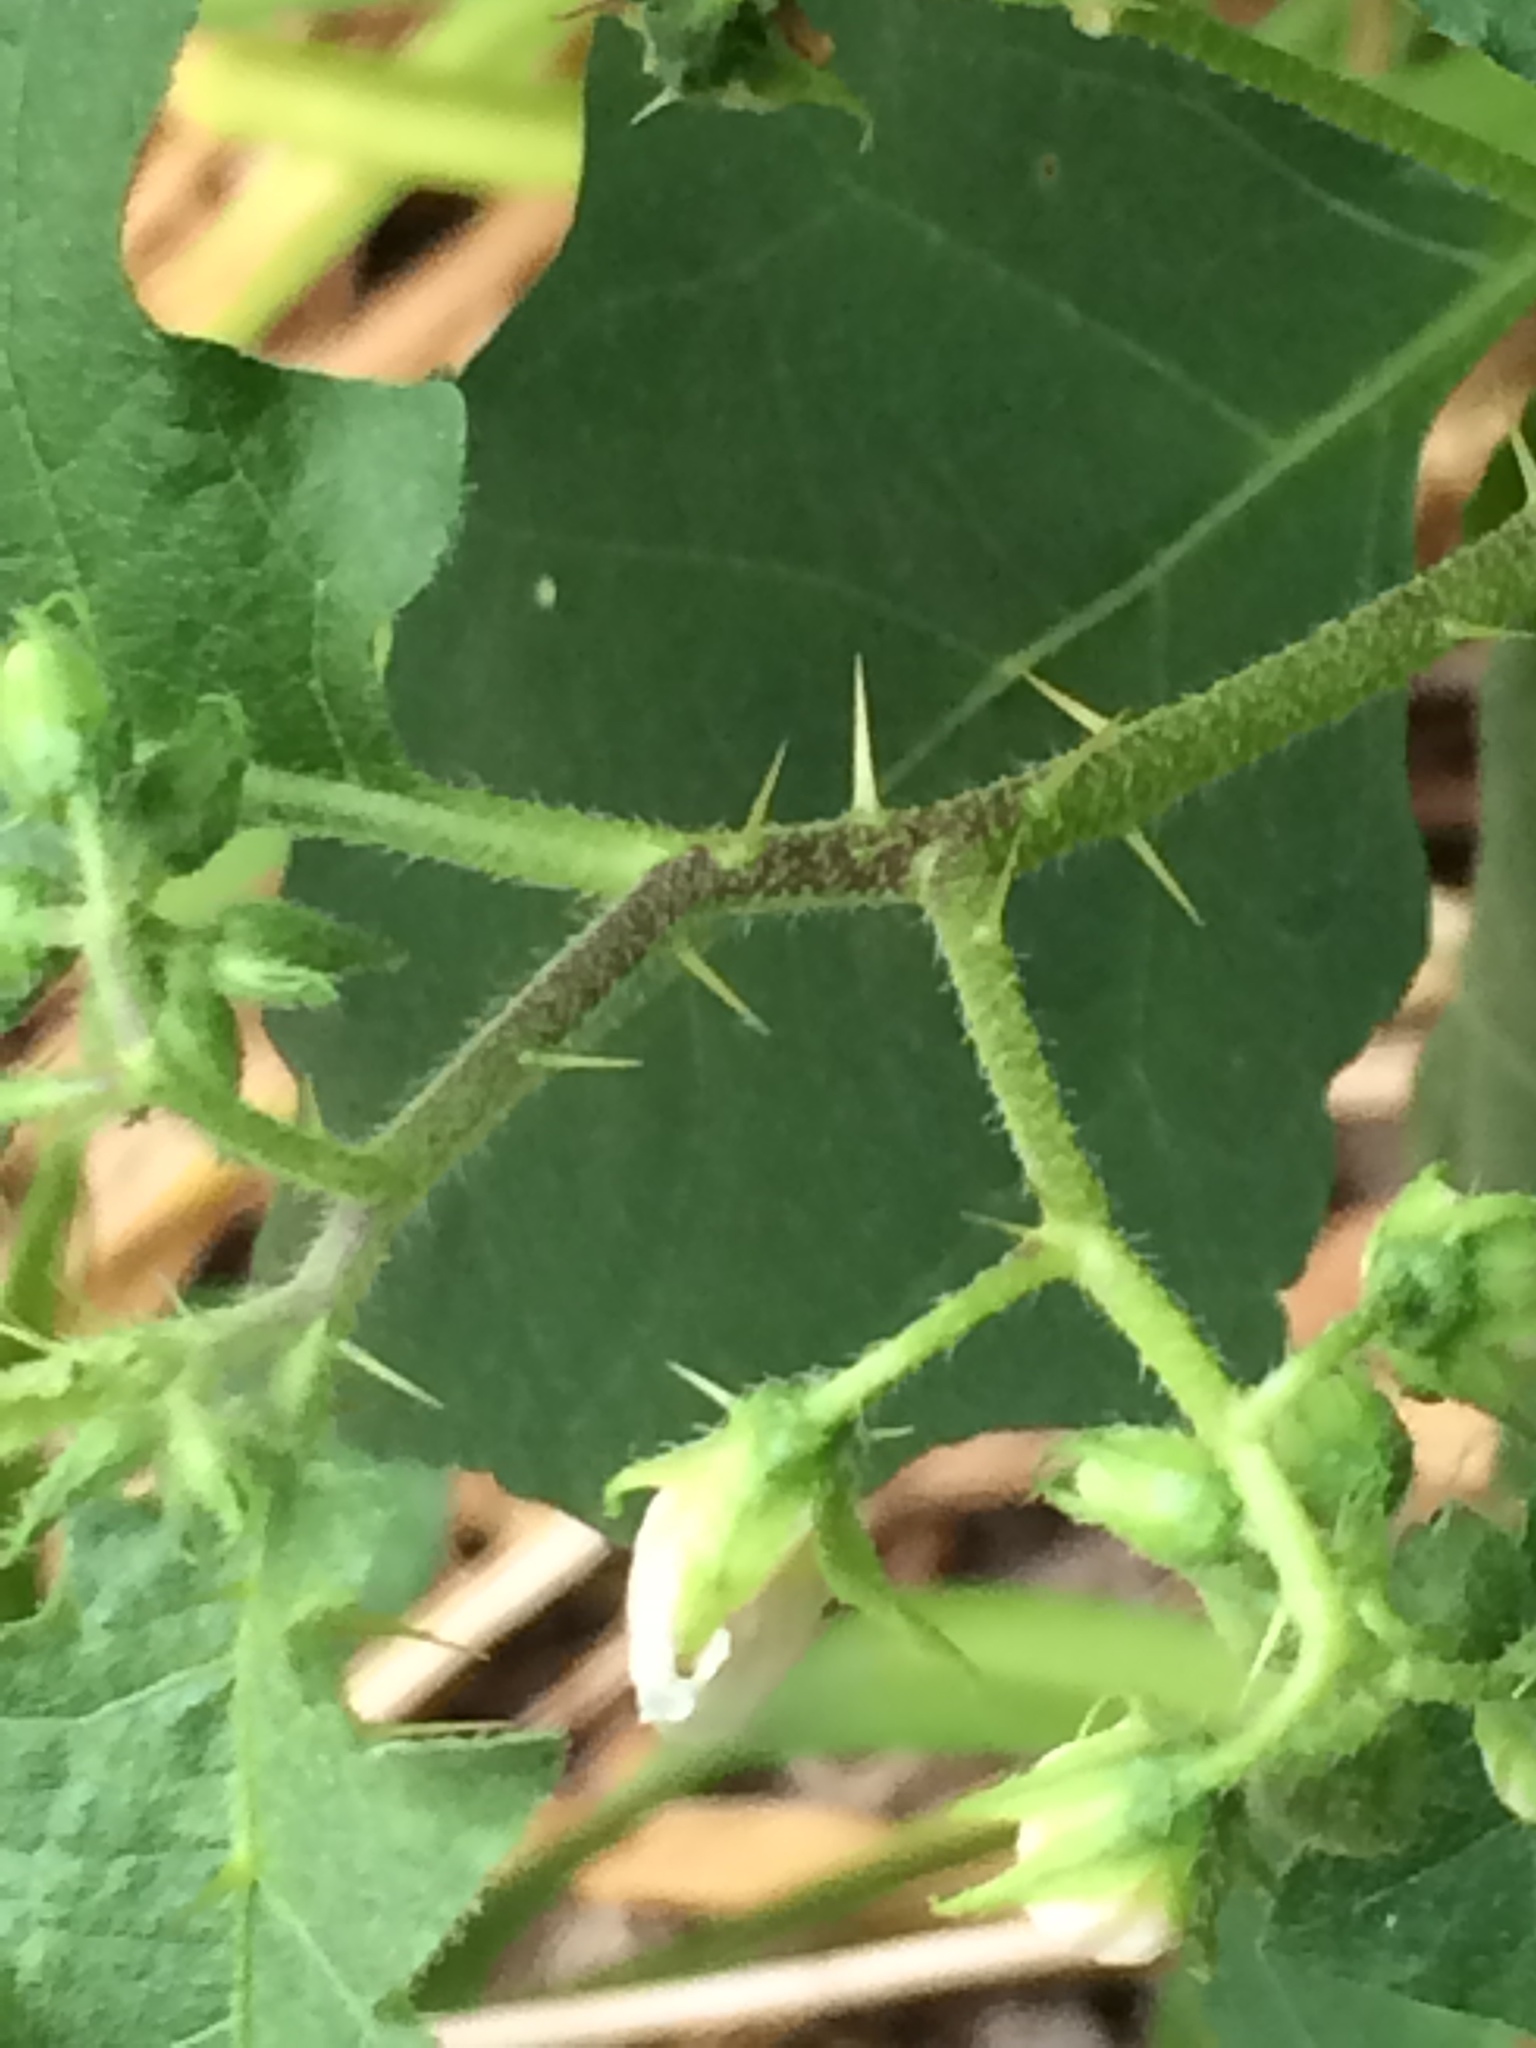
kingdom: Plantae
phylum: Tracheophyta
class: Magnoliopsida
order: Solanales
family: Solanaceae
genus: Solanum
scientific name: Solanum carolinense
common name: Horse-nettle
